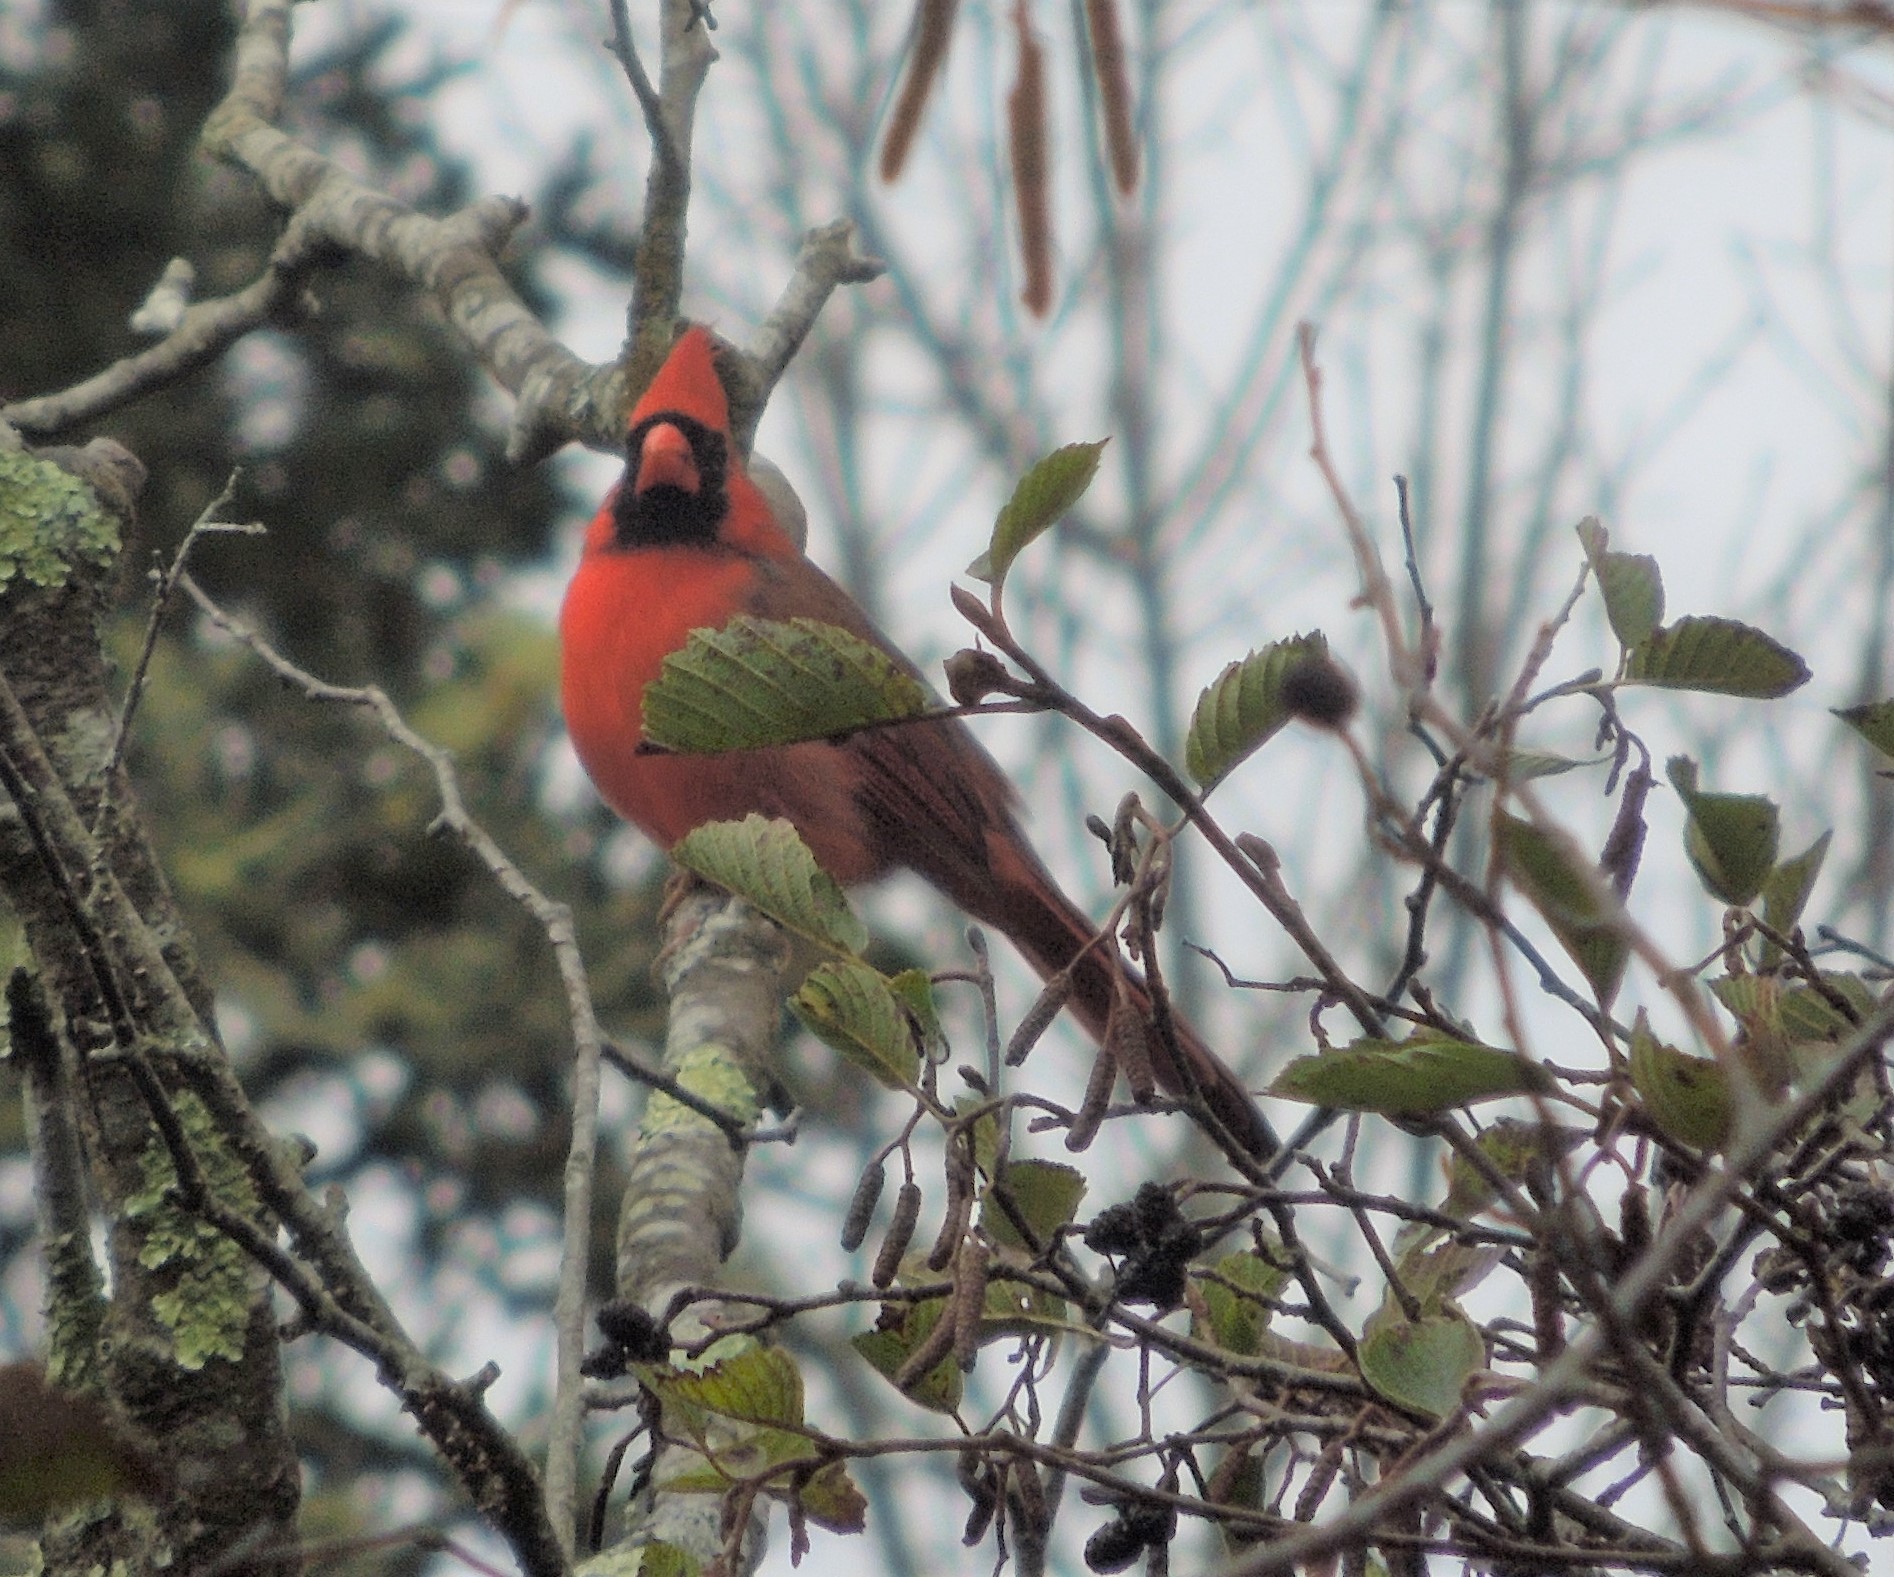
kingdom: Animalia
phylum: Chordata
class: Aves
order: Passeriformes
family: Cardinalidae
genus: Cardinalis
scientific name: Cardinalis cardinalis
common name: Northern cardinal
